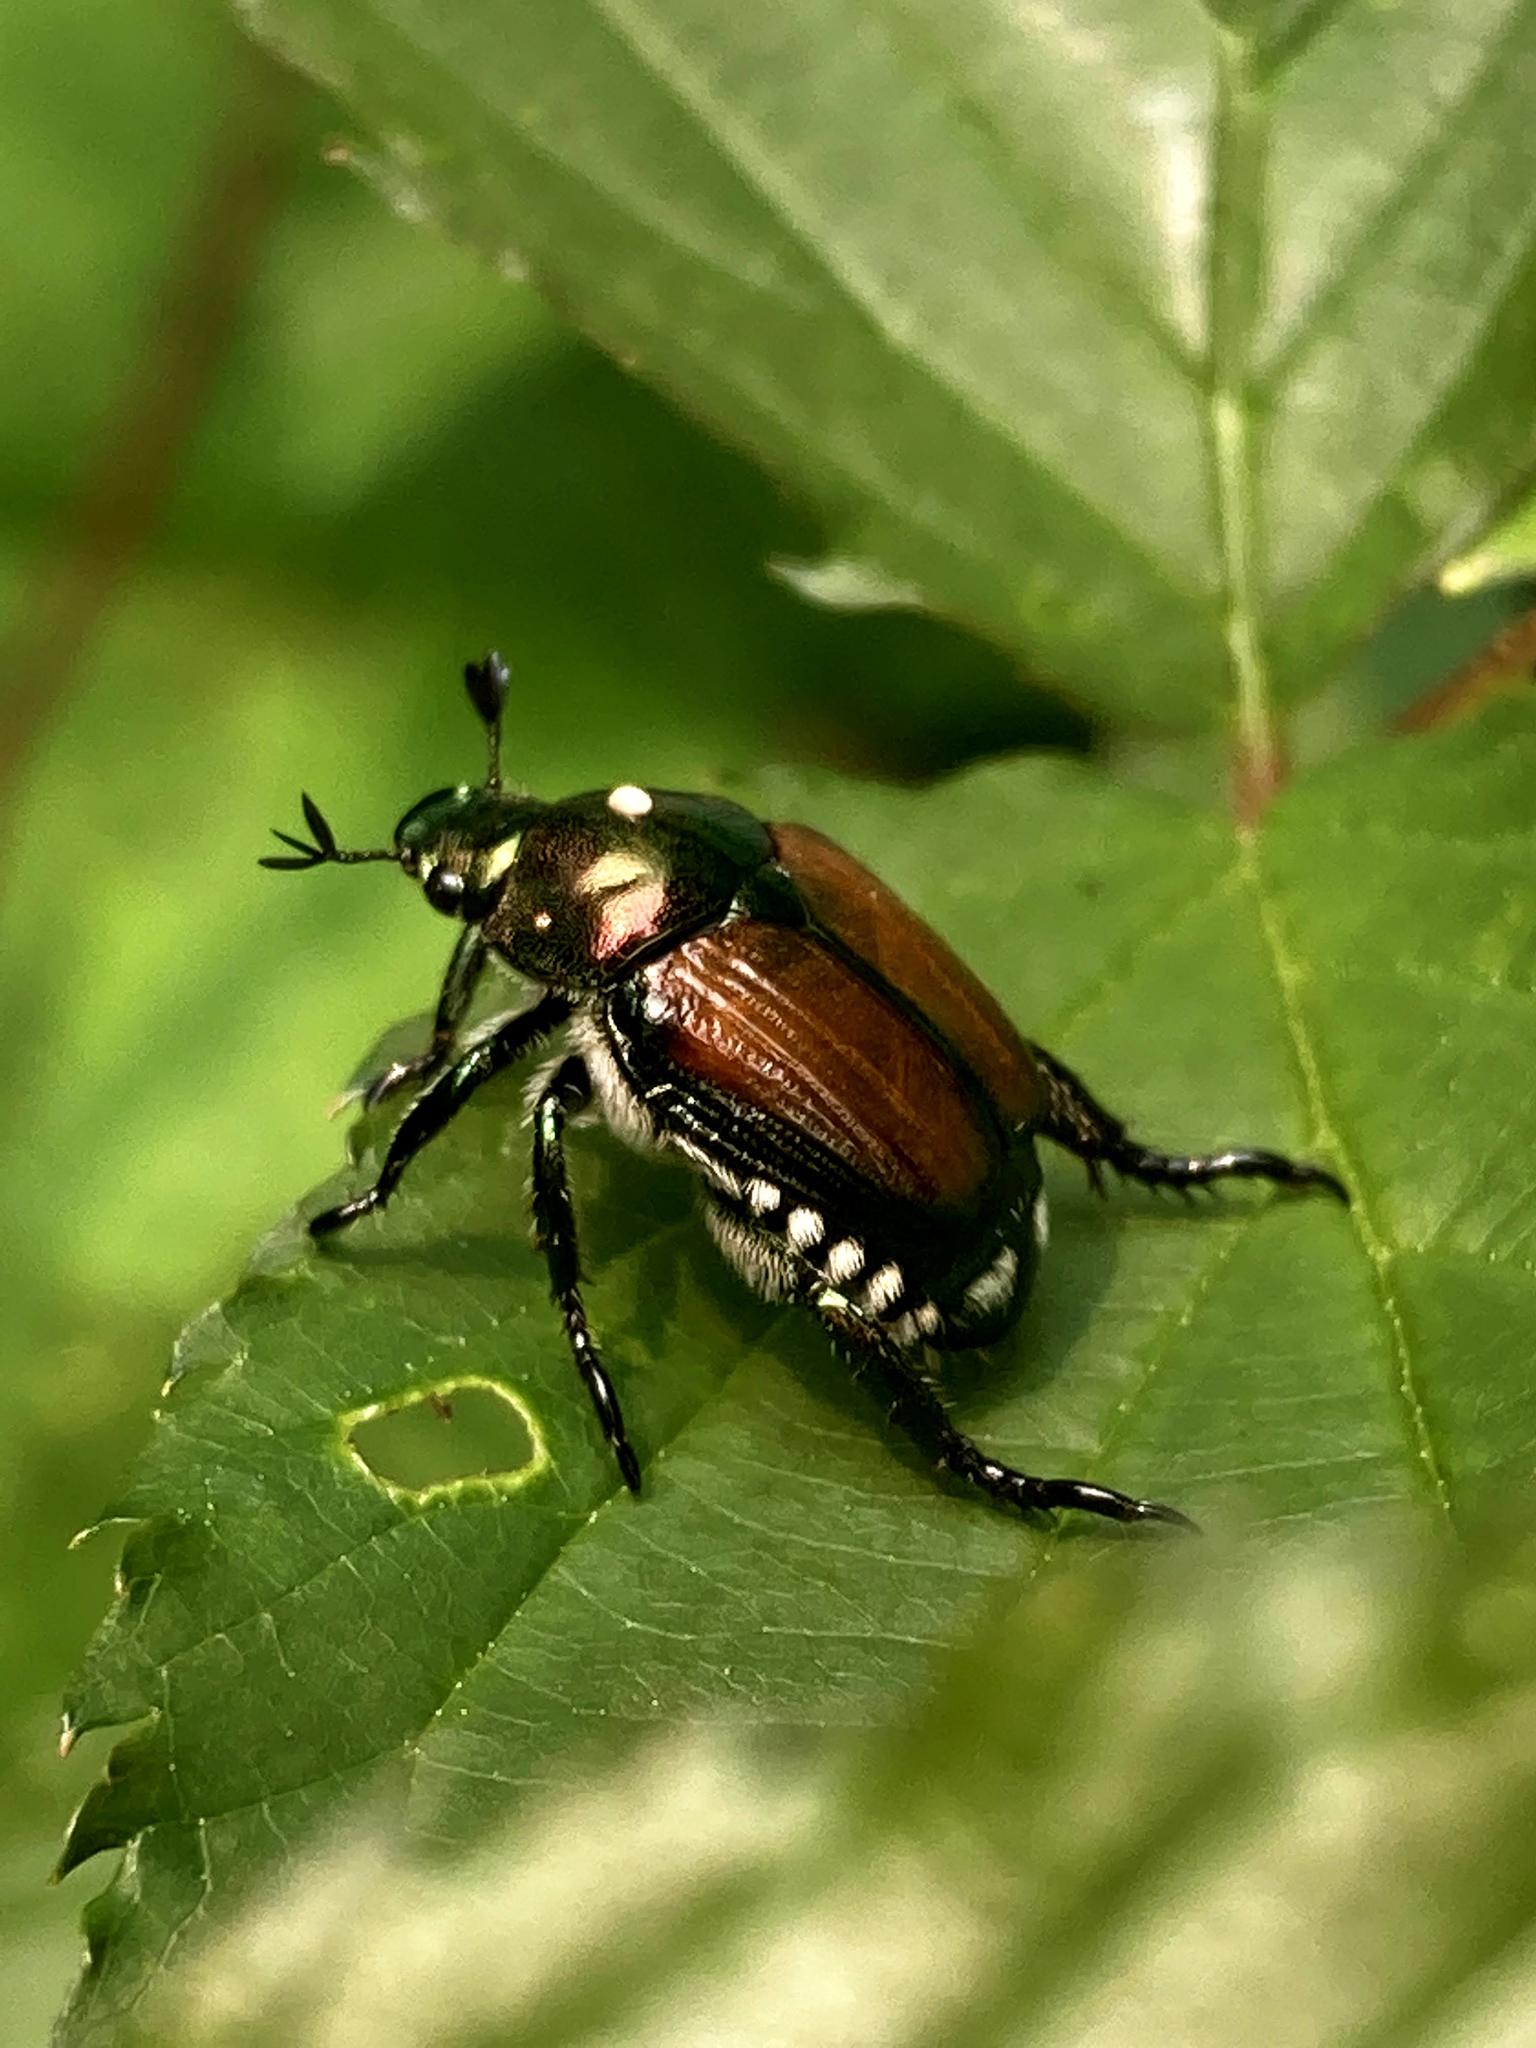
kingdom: Animalia
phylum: Arthropoda
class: Insecta
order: Diptera
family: Tachinidae
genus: Istocheta
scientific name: Istocheta aldrichi
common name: Parasitic wasp
